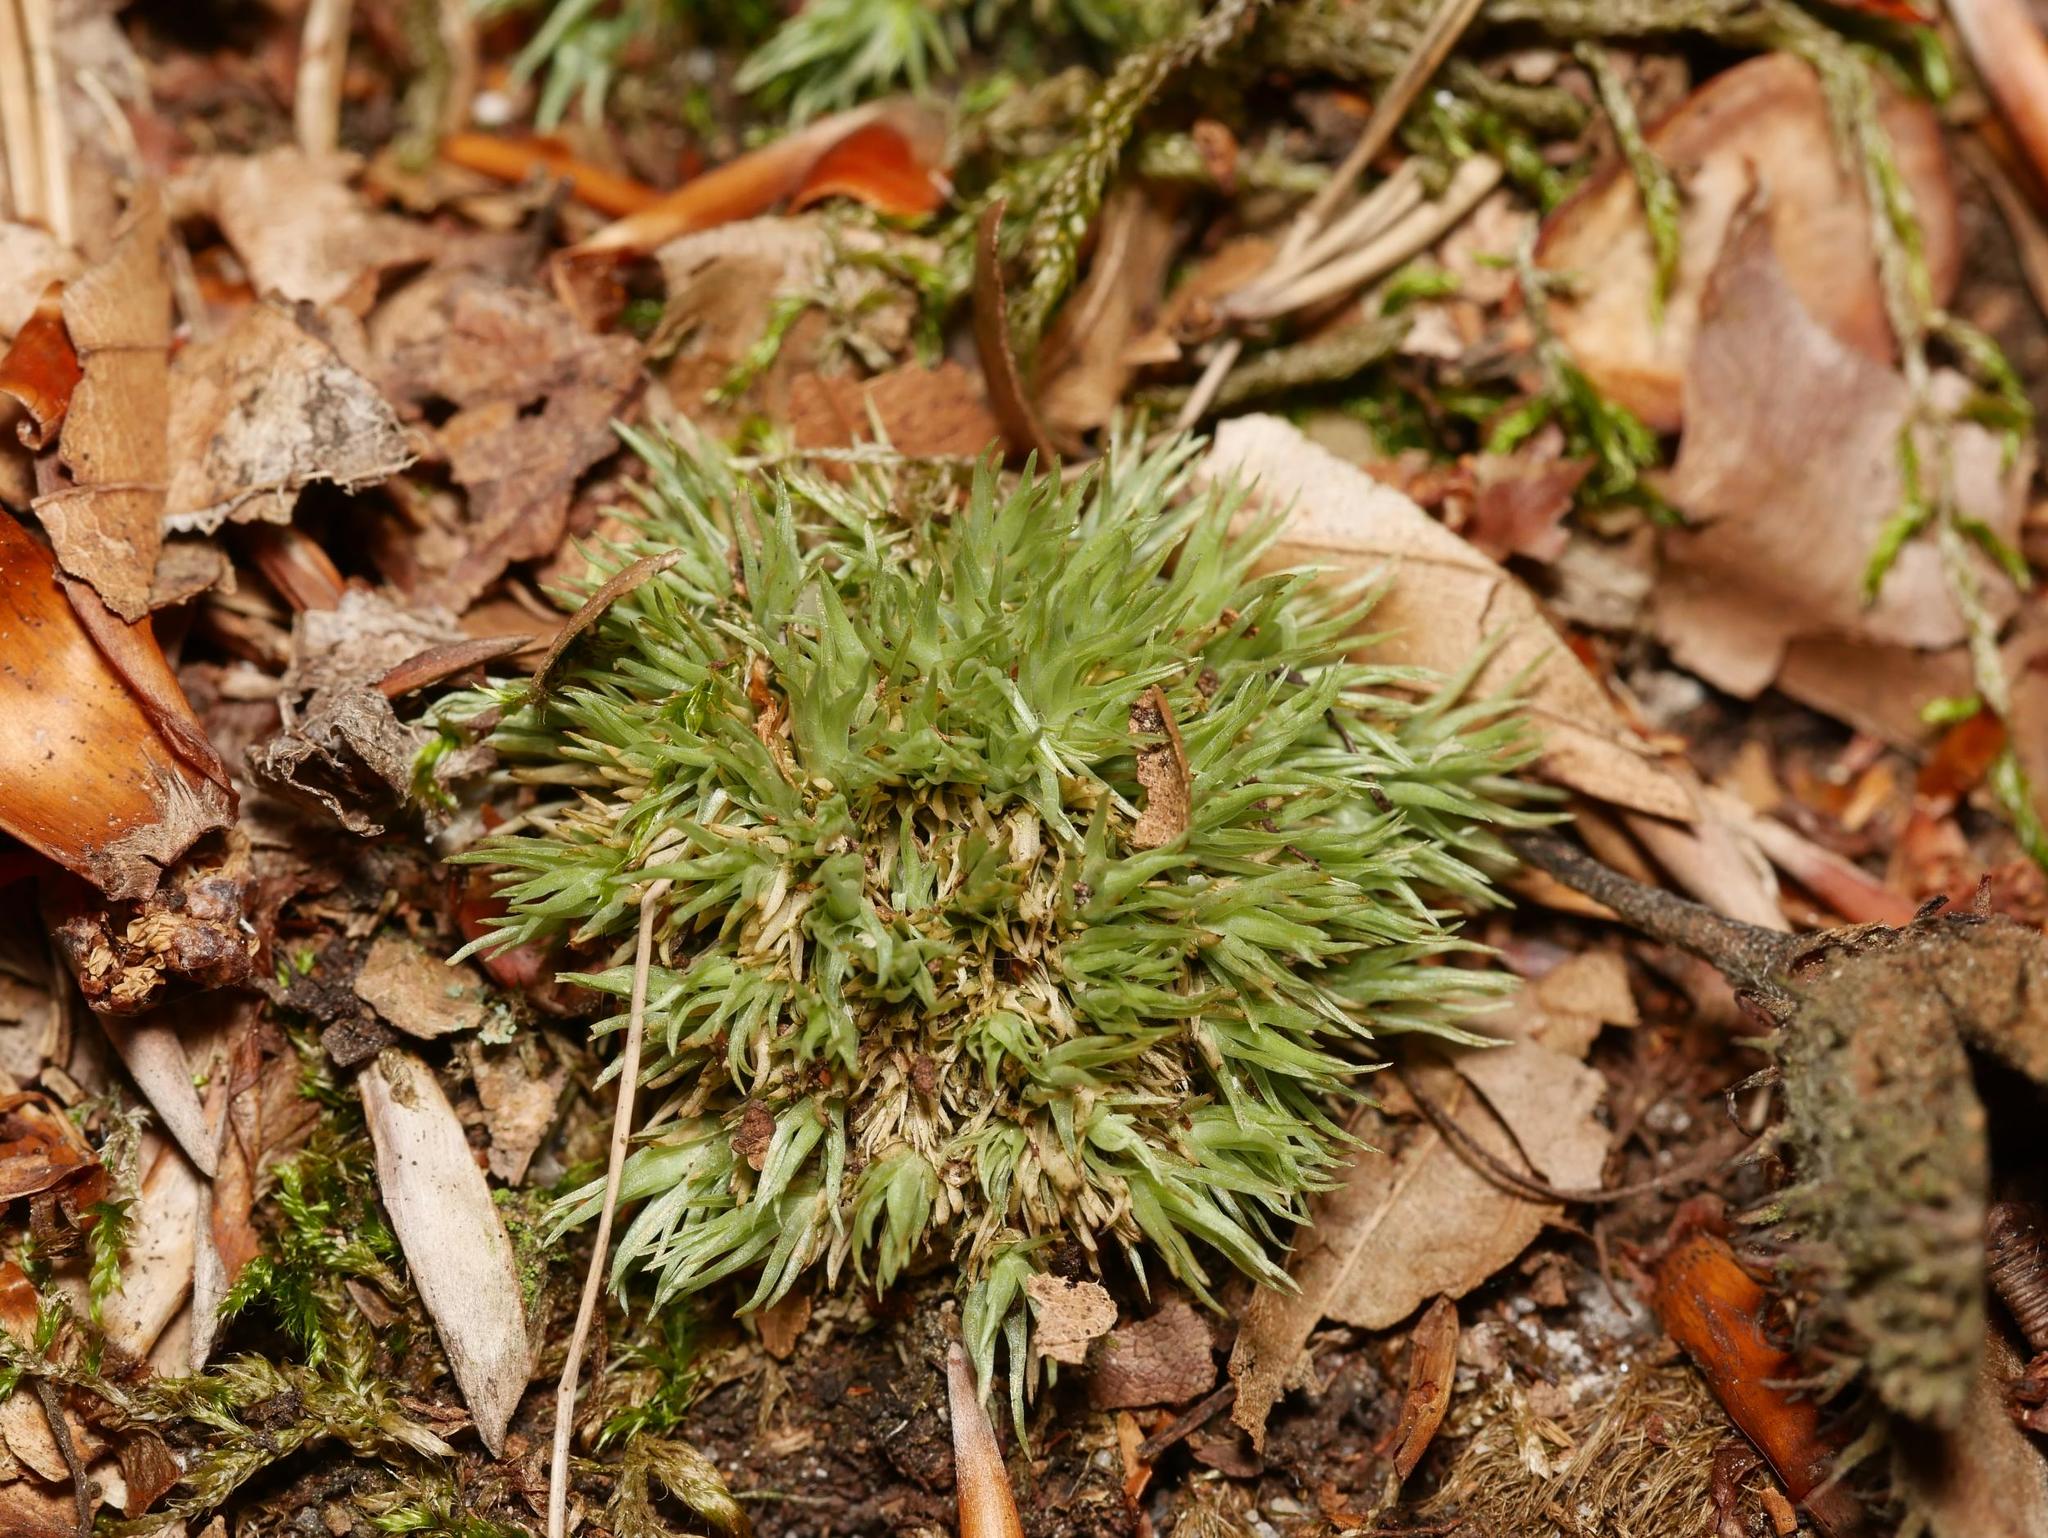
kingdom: Plantae
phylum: Bryophyta
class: Bryopsida
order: Dicranales
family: Leucobryaceae
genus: Leucobryum
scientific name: Leucobryum glaucum
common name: Large white-moss
